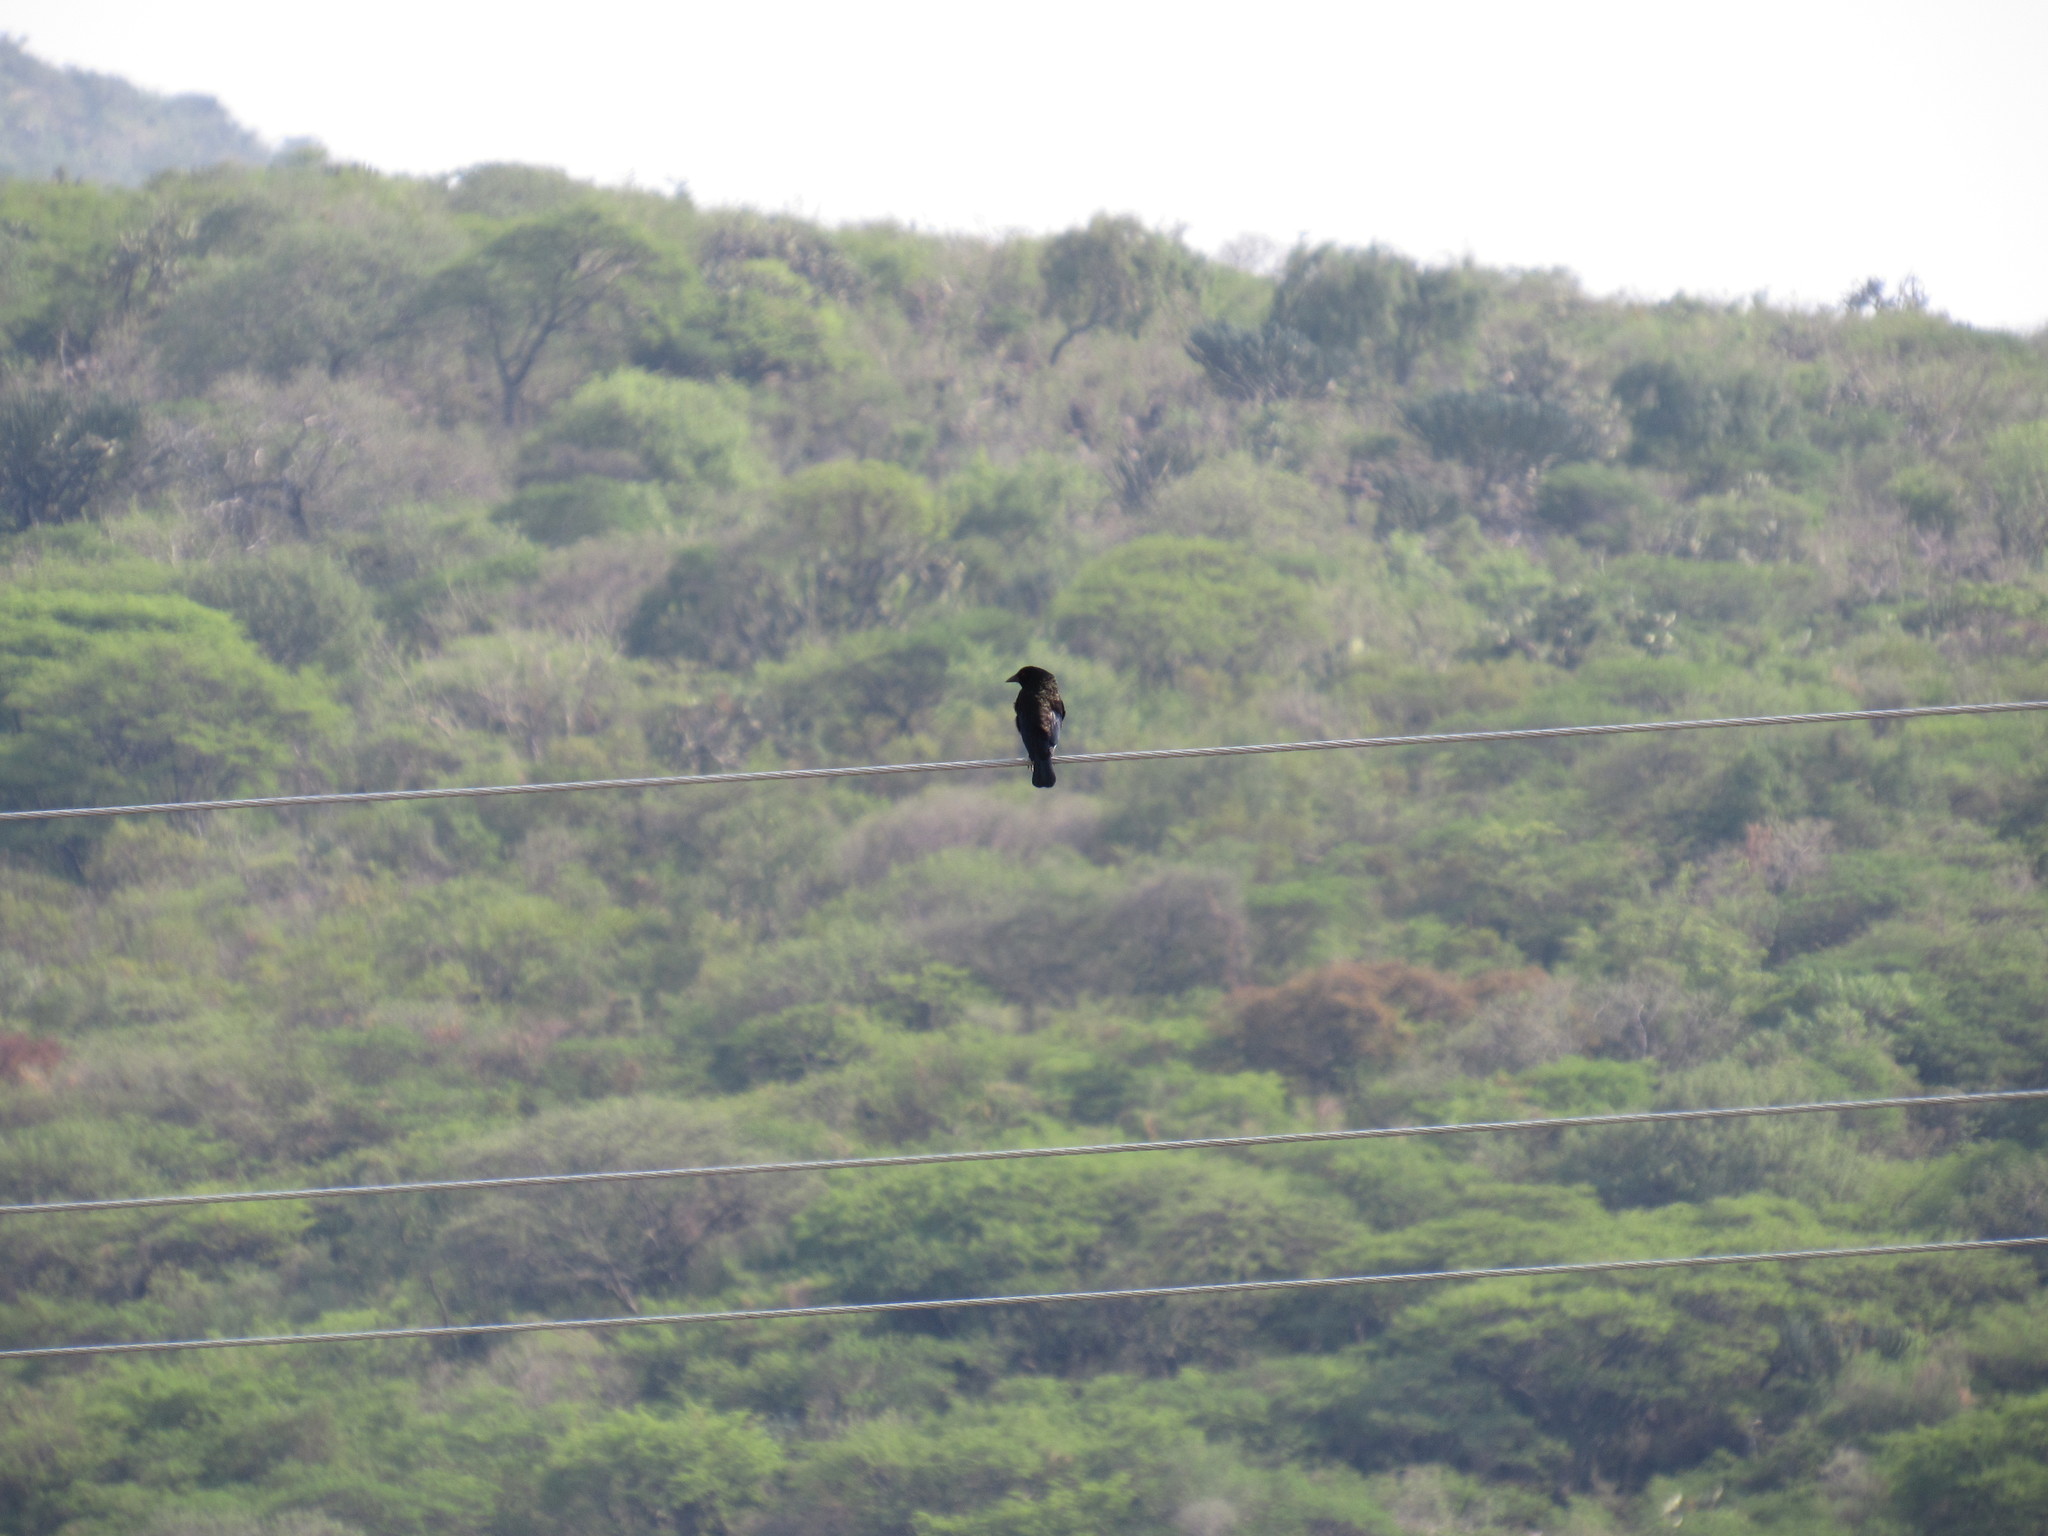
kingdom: Animalia
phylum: Chordata
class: Aves
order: Passeriformes
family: Icteridae
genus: Molothrus
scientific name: Molothrus aeneus
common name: Bronzed cowbird
